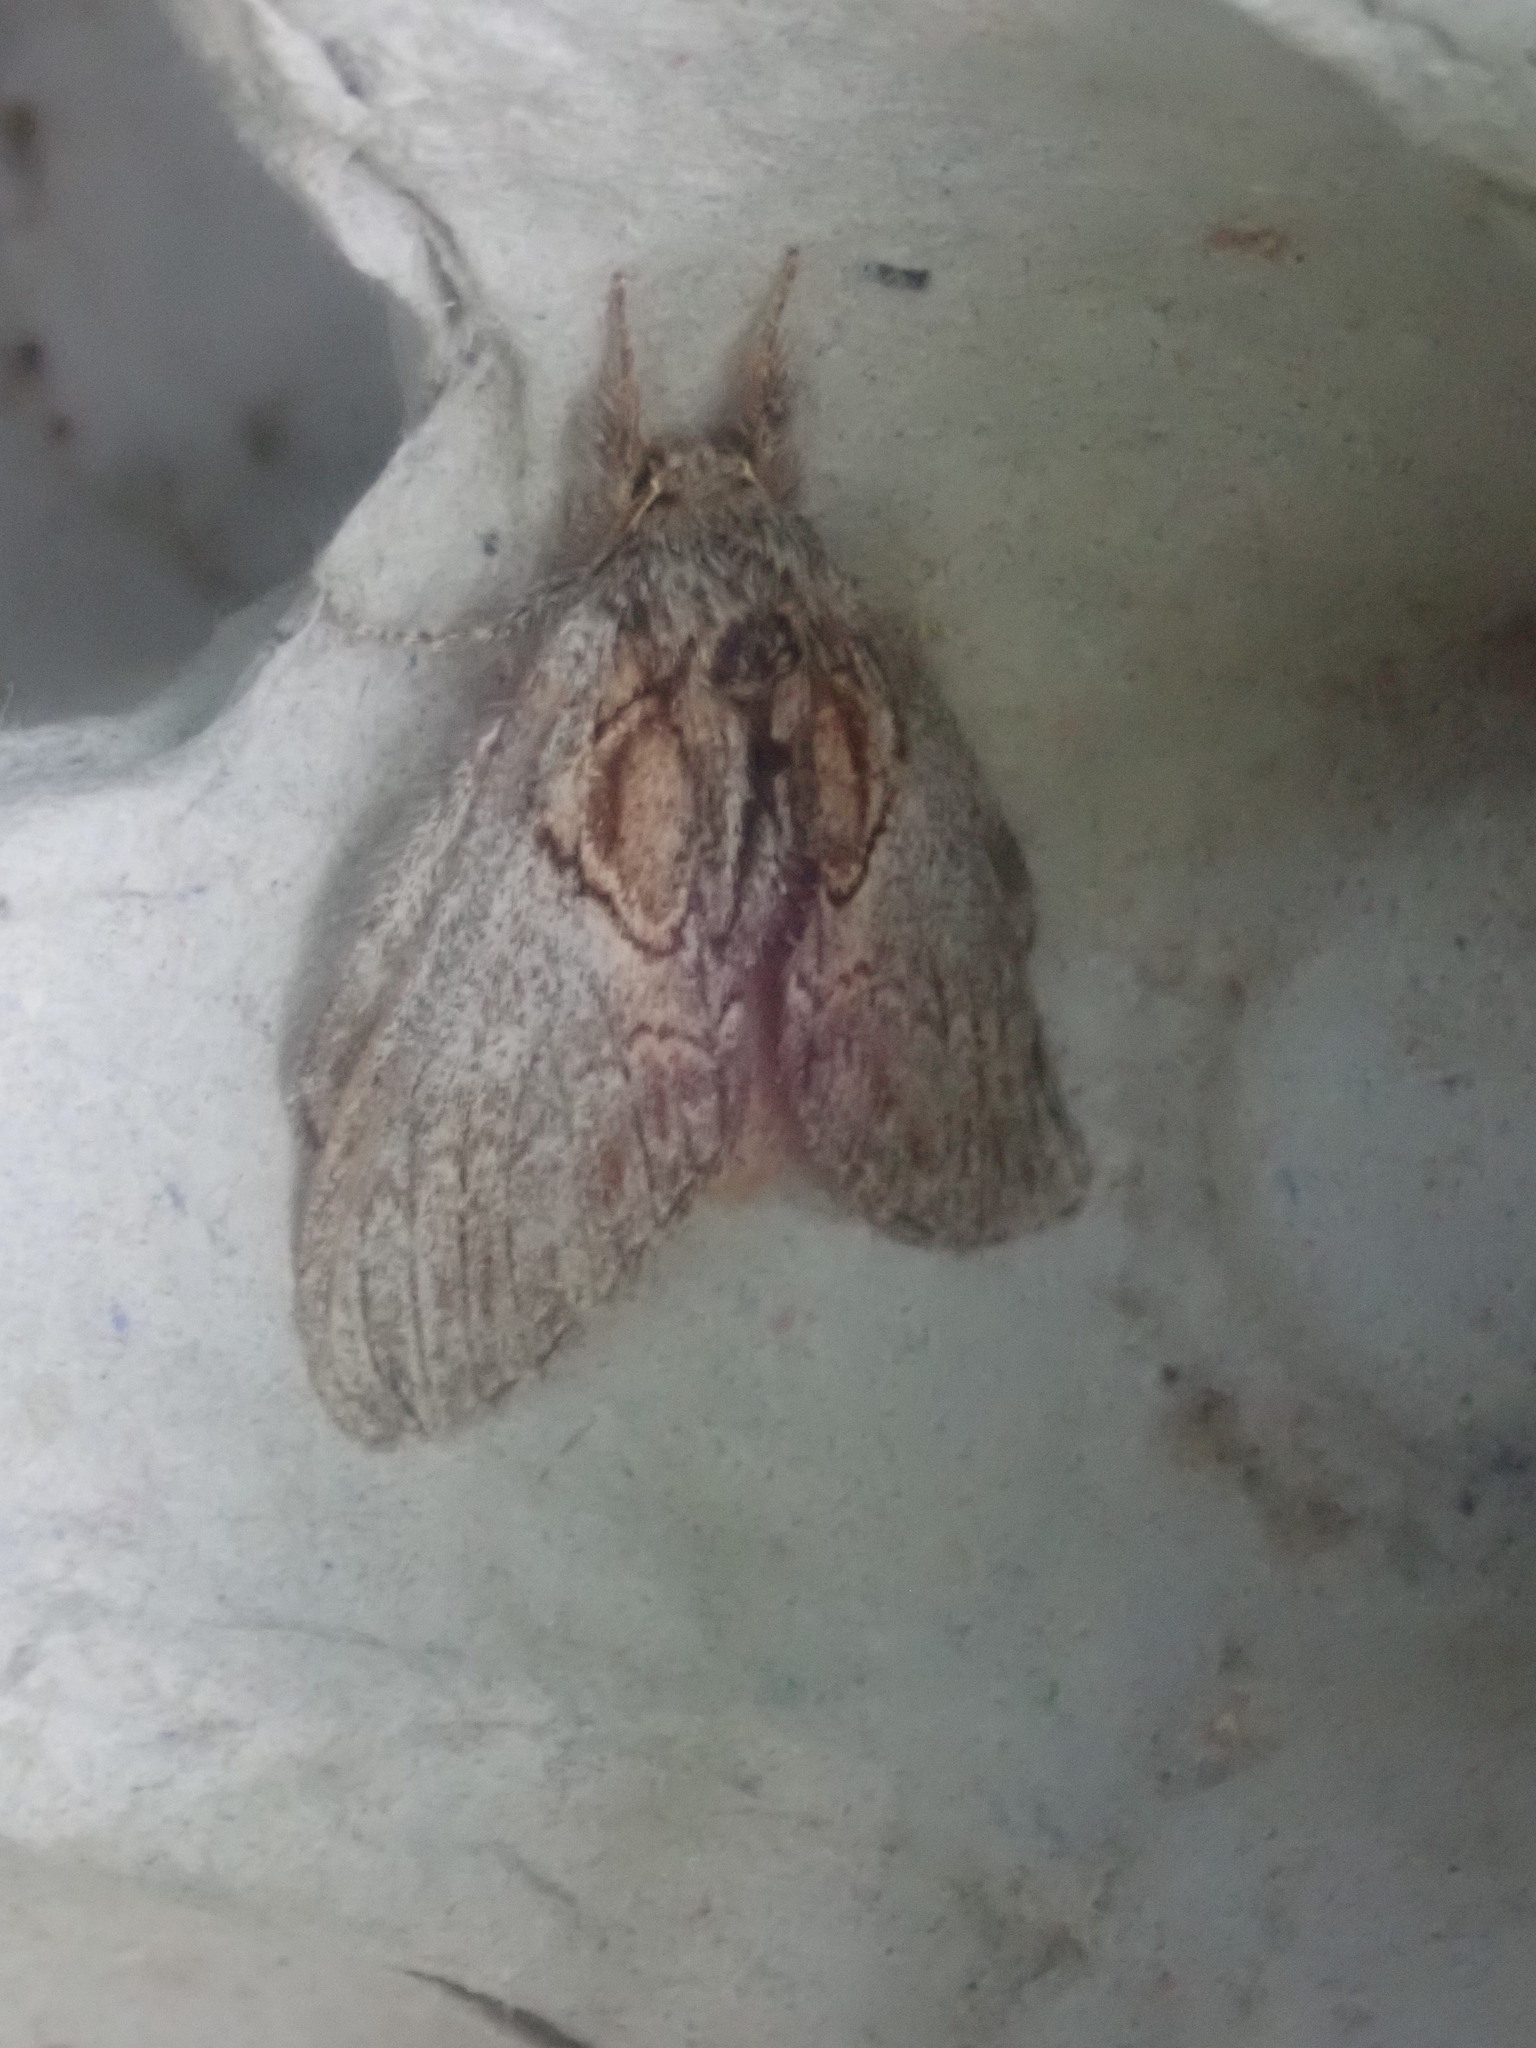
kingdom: Animalia
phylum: Arthropoda
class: Insecta
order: Lepidoptera
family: Notodontidae
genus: Peridea
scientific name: Peridea basitriens
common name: Oval-based prominent
